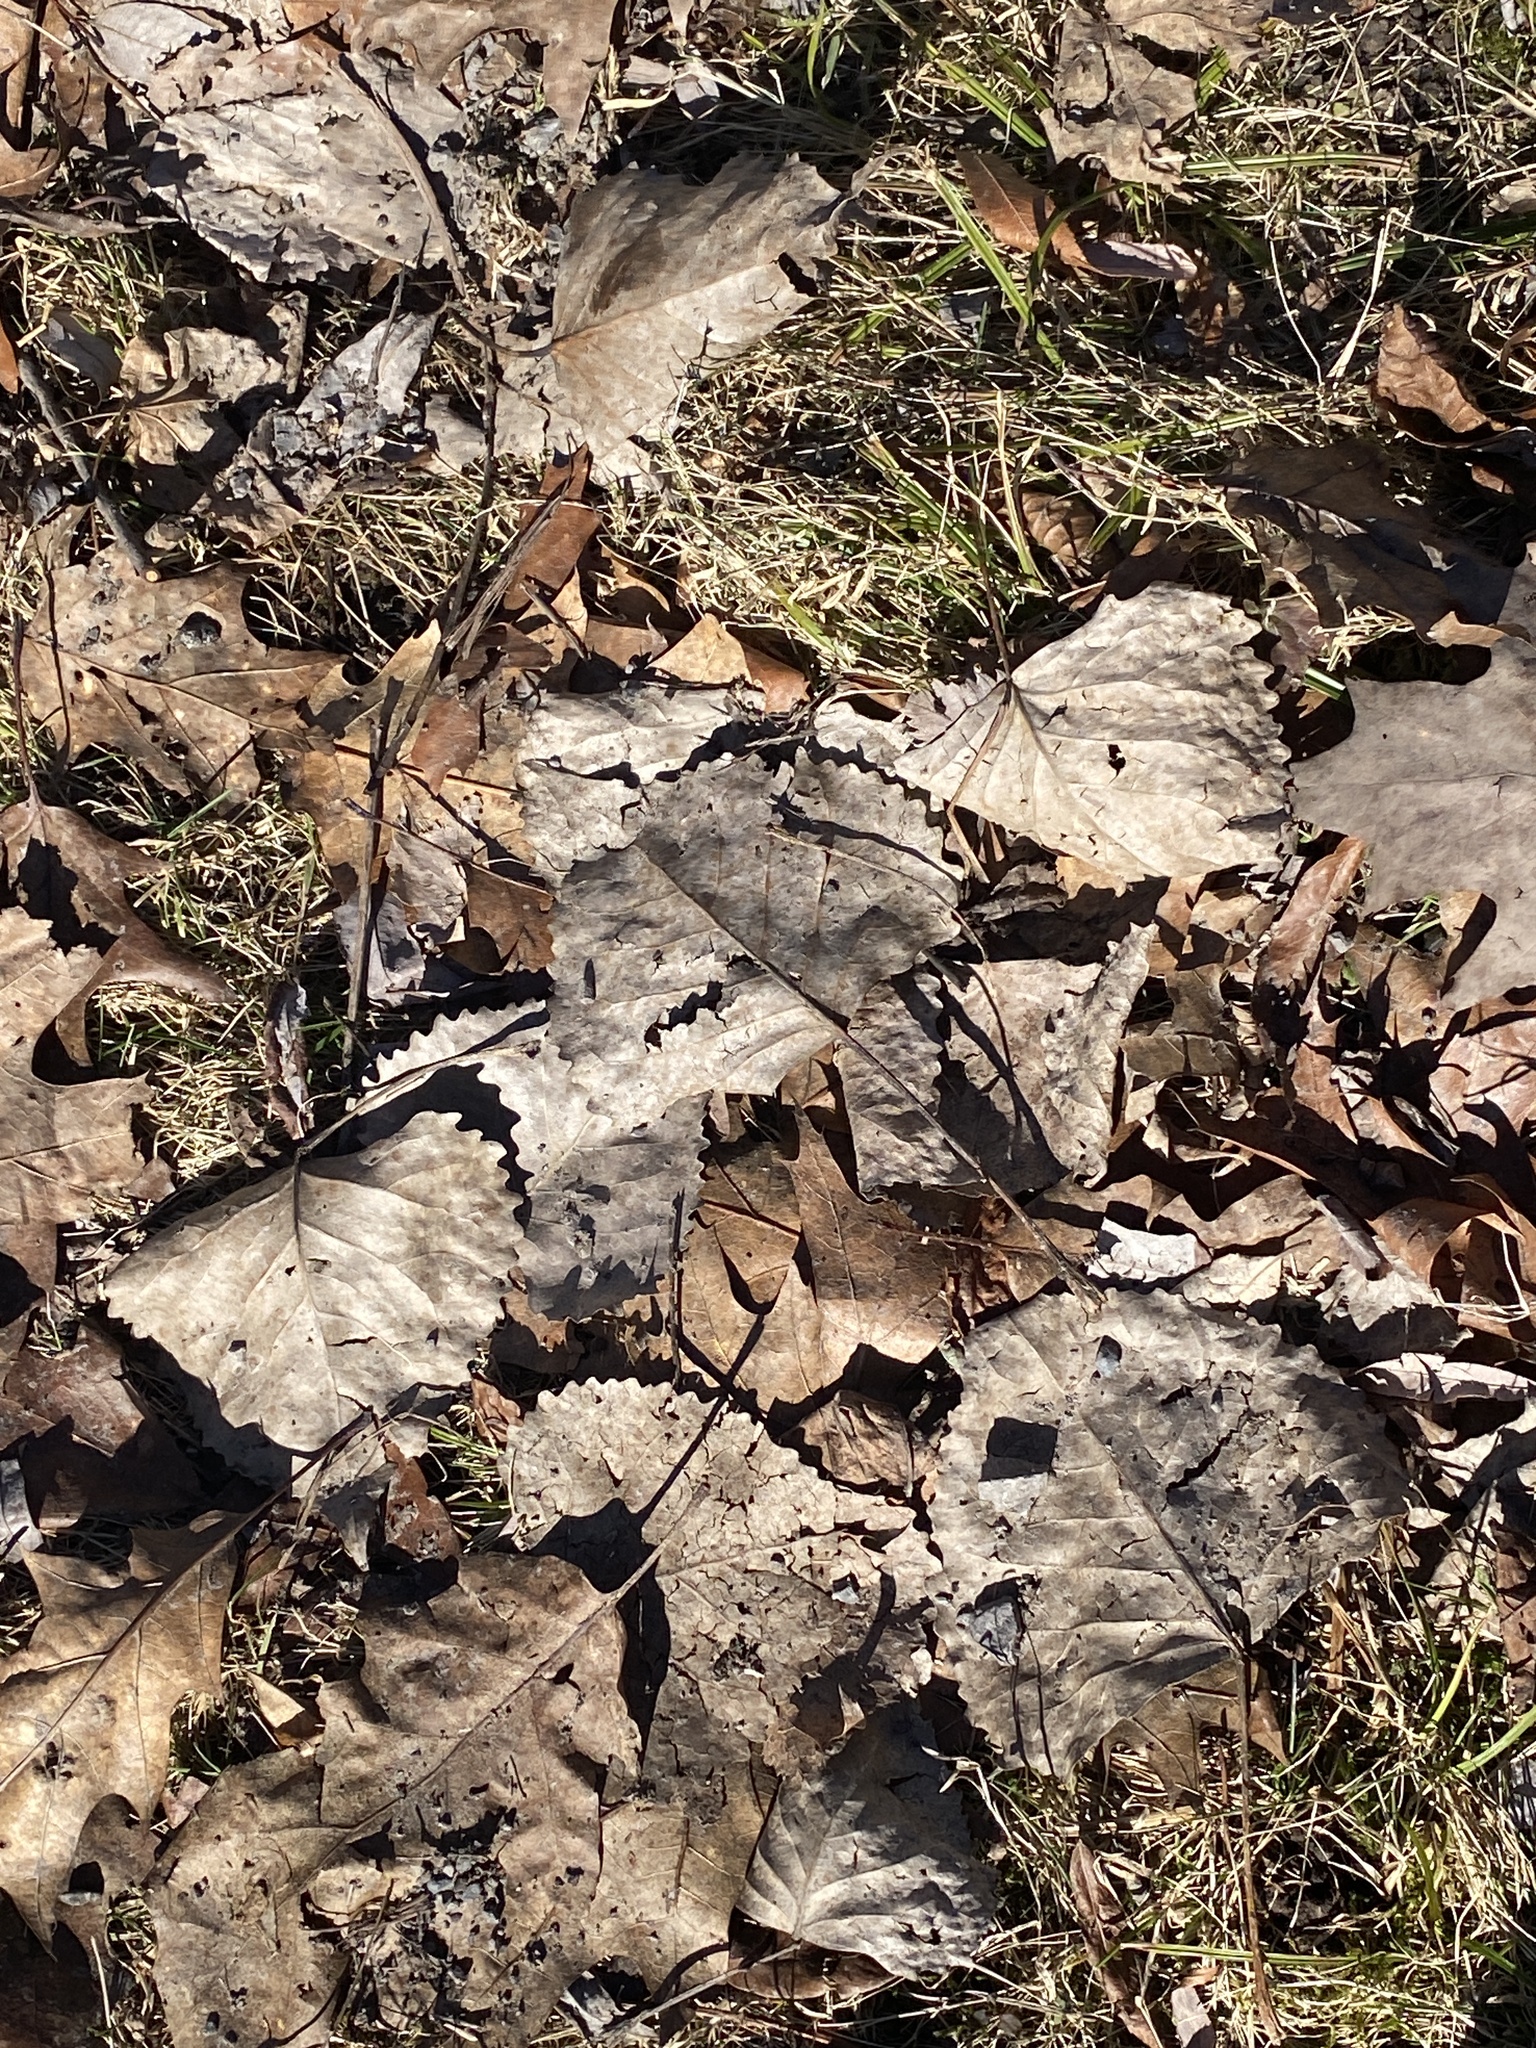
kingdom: Plantae
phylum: Tracheophyta
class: Magnoliopsida
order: Malpighiales
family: Salicaceae
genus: Populus
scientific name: Populus deltoides
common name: Eastern cottonwood
